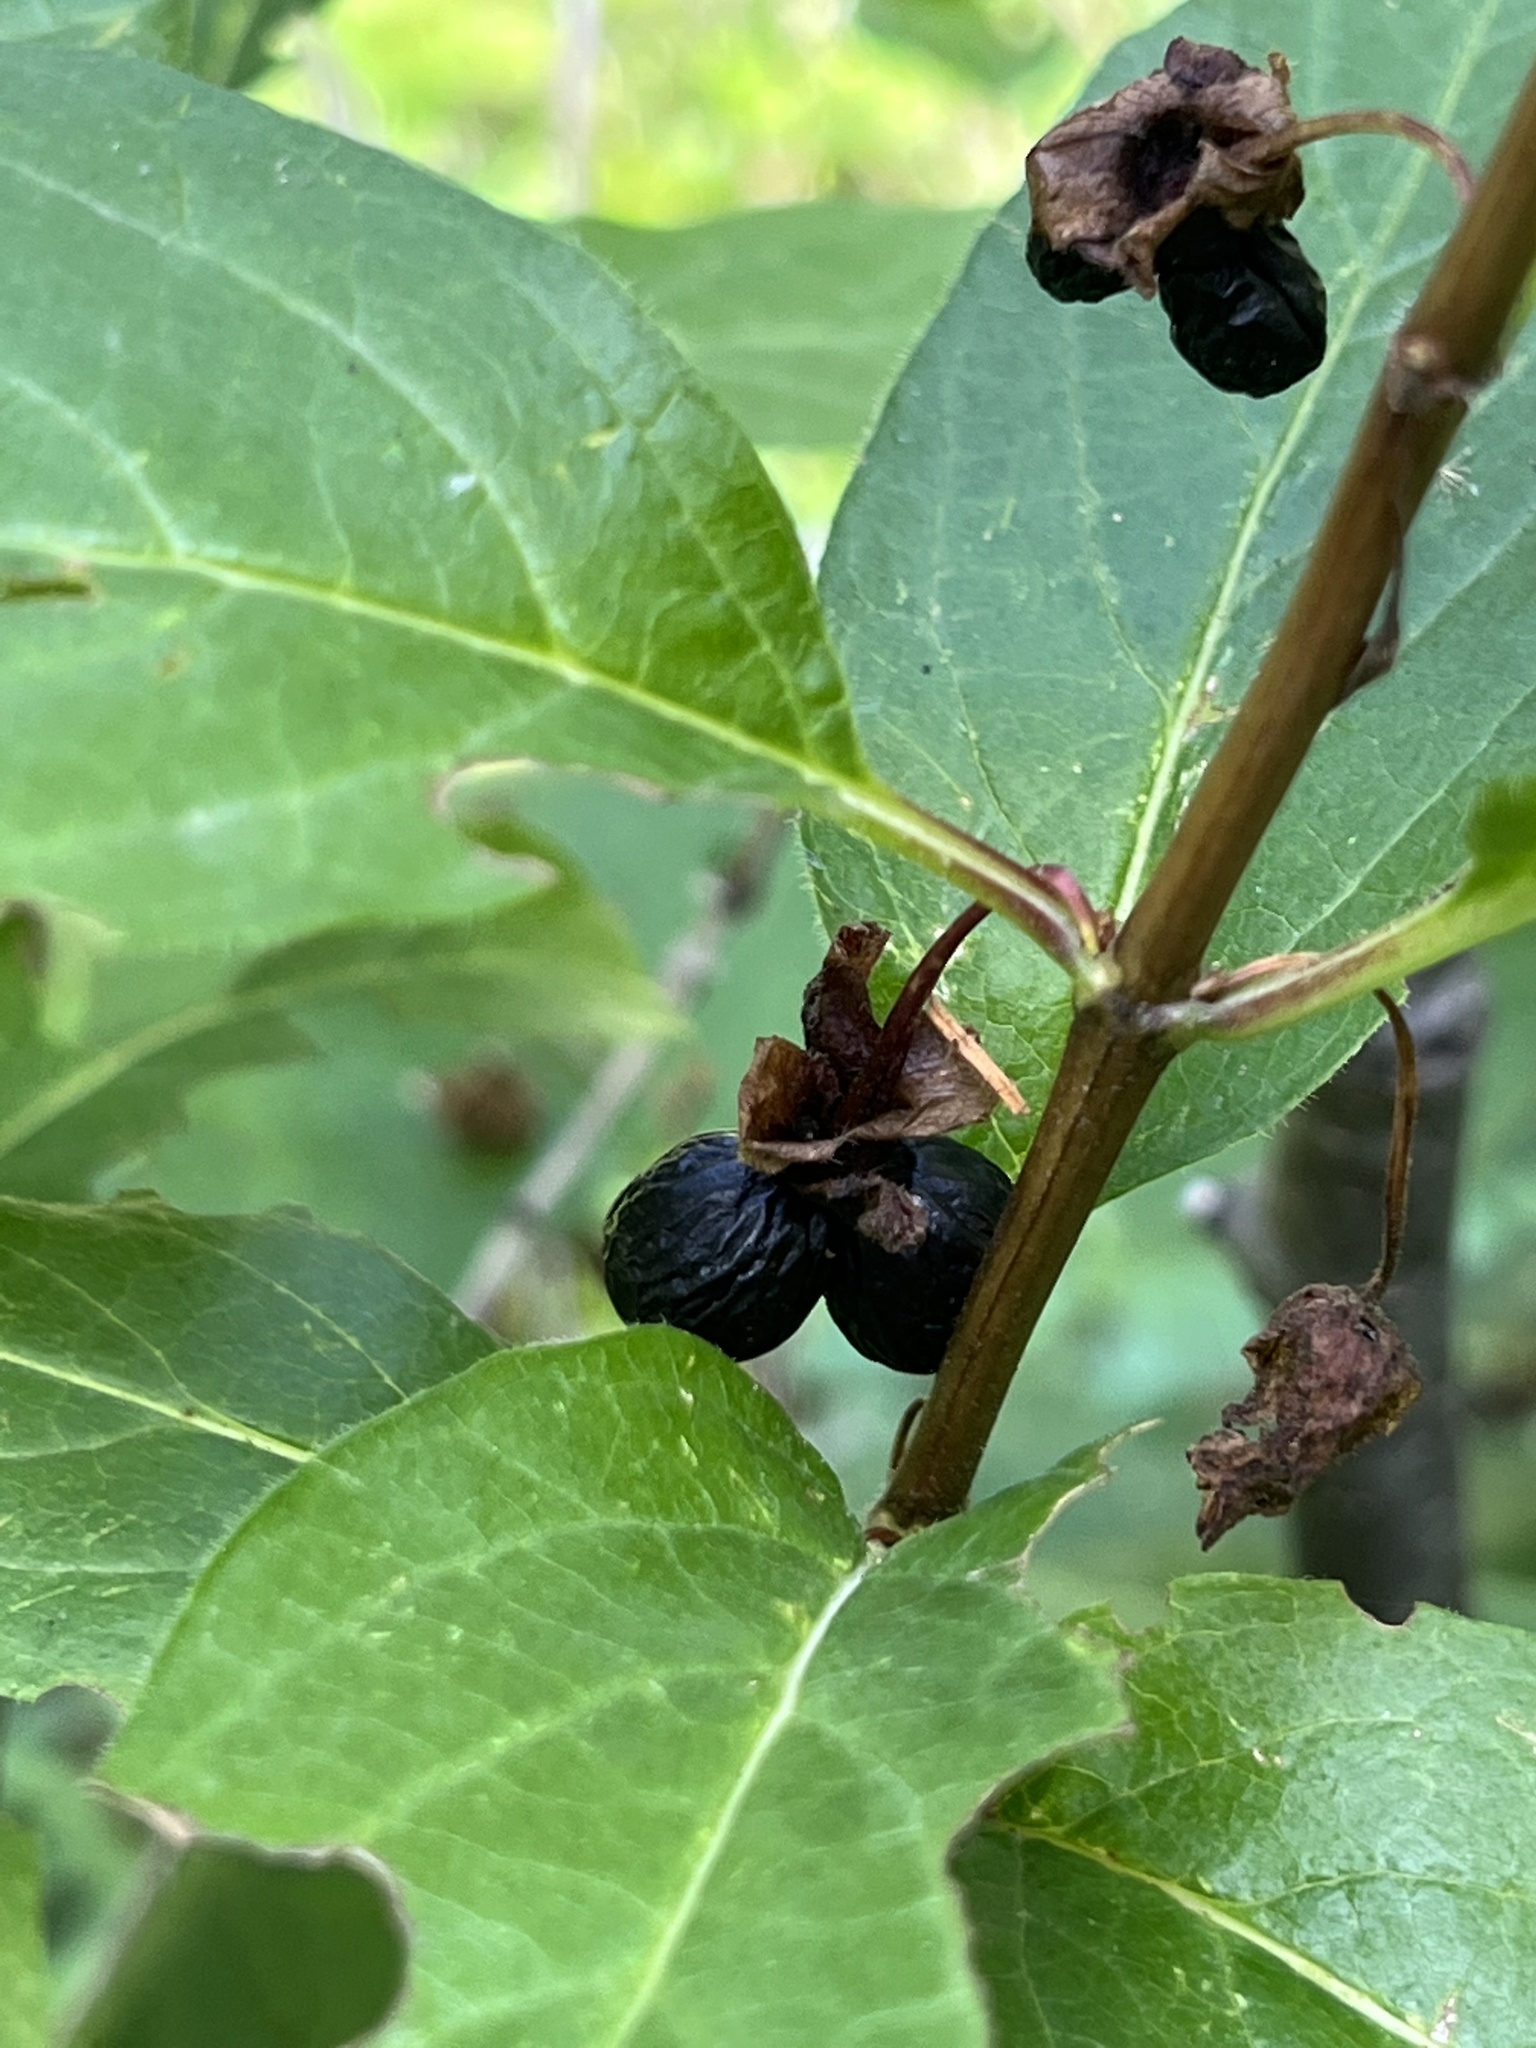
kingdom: Plantae
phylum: Tracheophyta
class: Magnoliopsida
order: Dipsacales
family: Caprifoliaceae
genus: Lonicera
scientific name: Lonicera involucrata
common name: Californian honeysuckle
